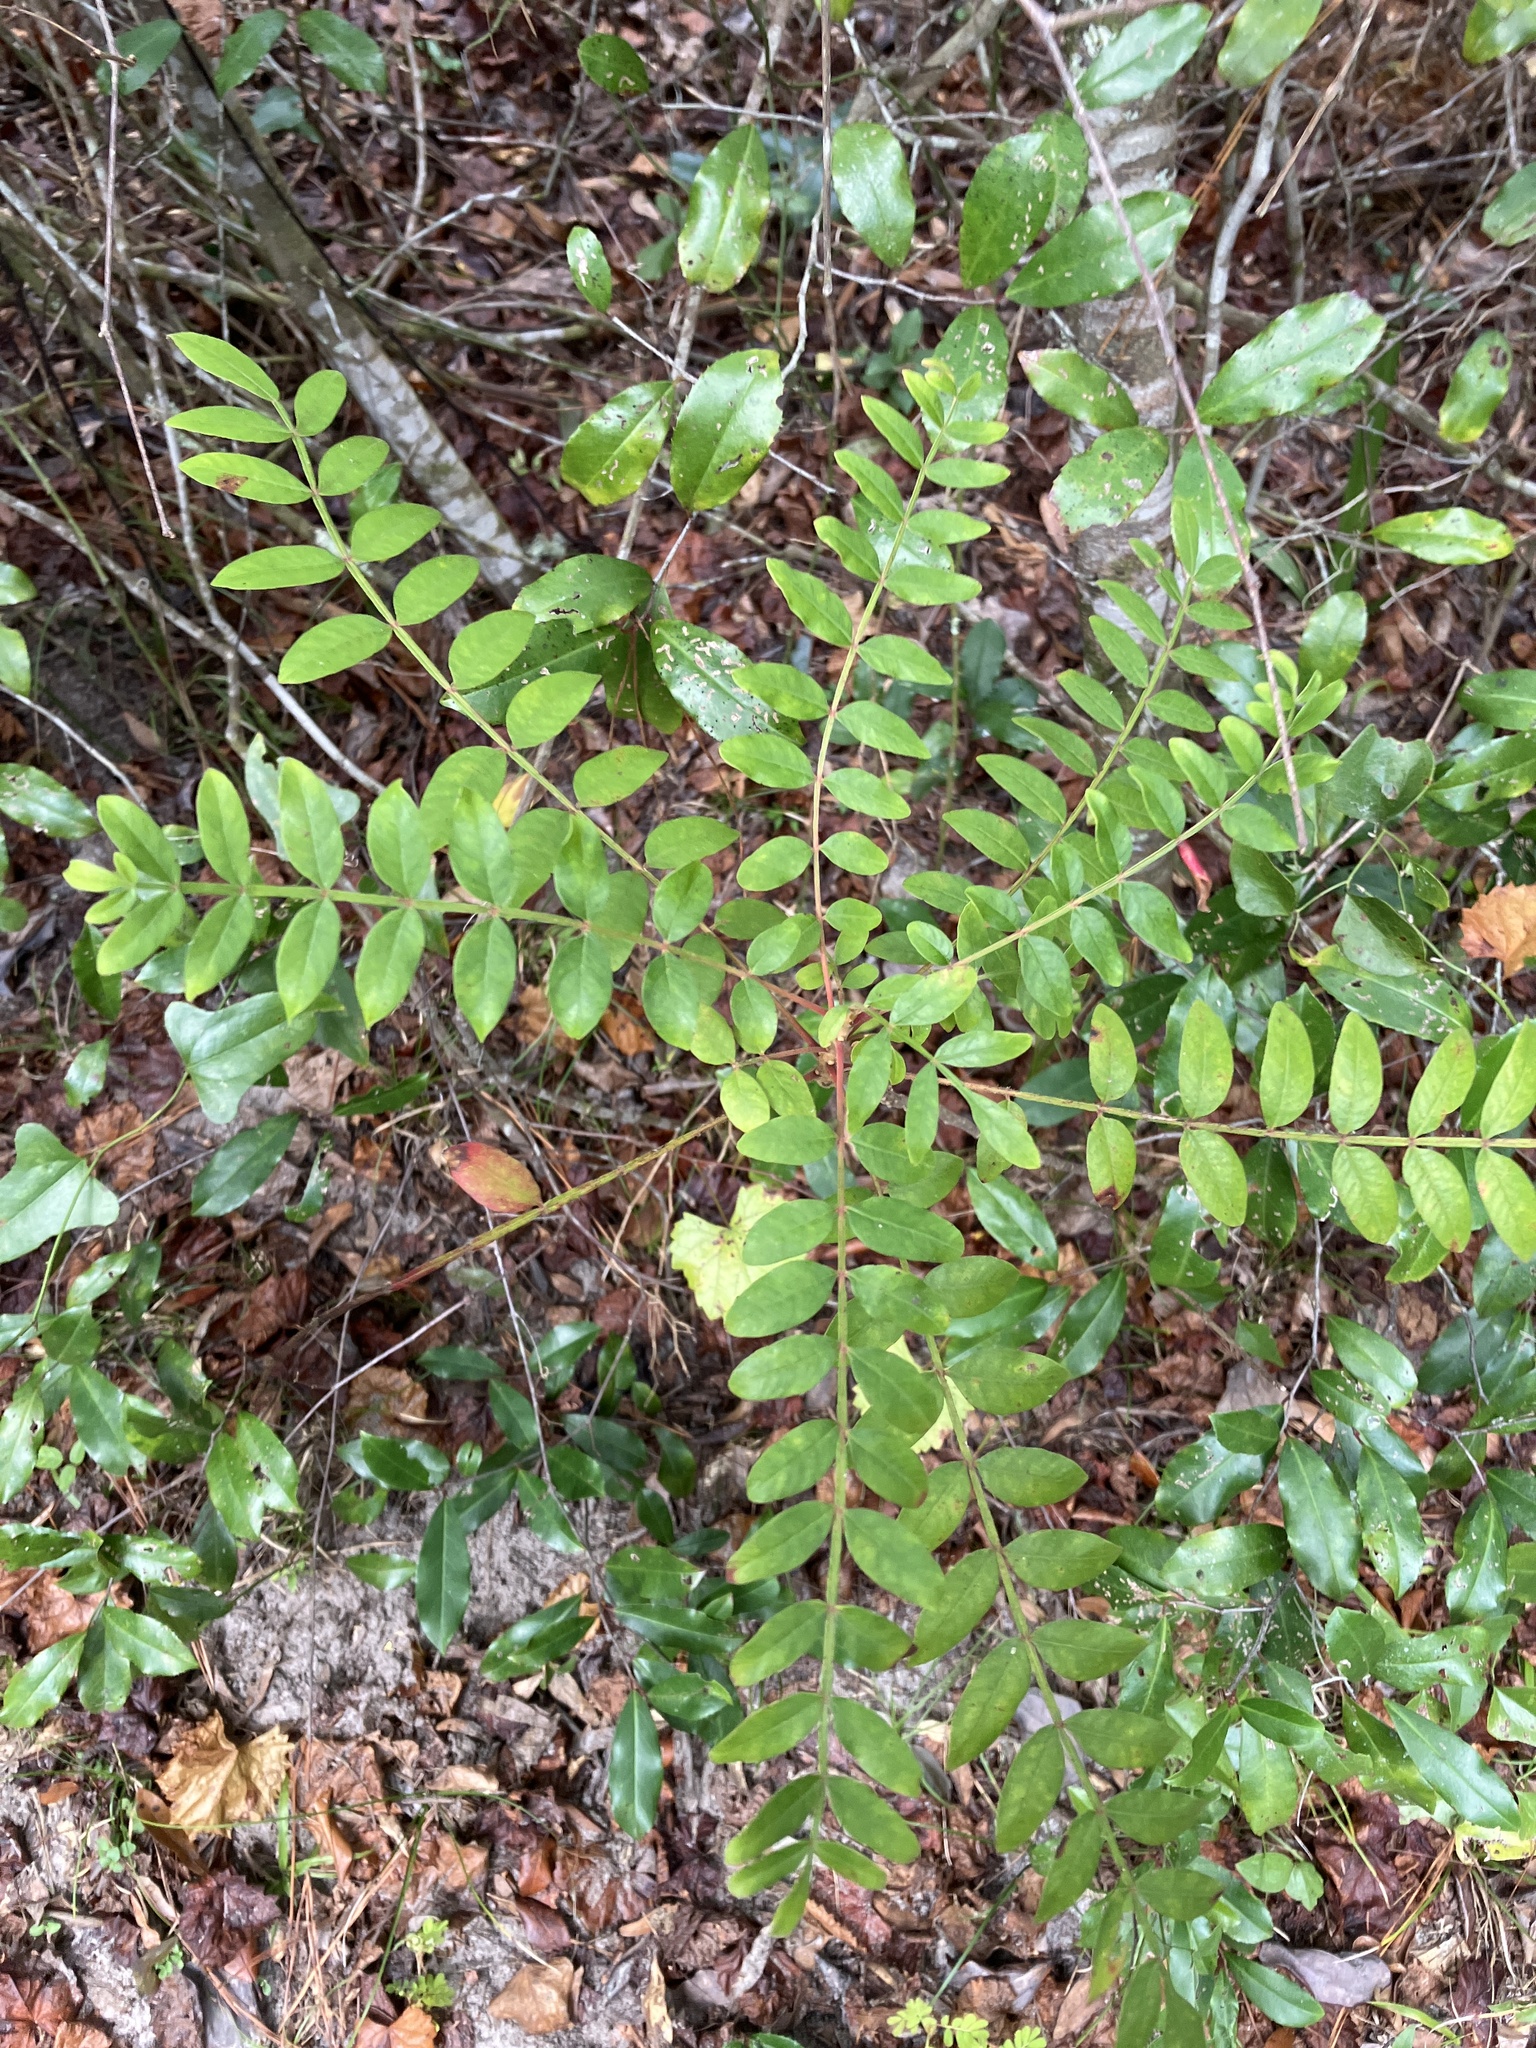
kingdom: Plantae
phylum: Tracheophyta
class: Magnoliopsida
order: Sapindales
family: Anacardiaceae
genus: Rhus
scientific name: Rhus copallina
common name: Shining sumac
